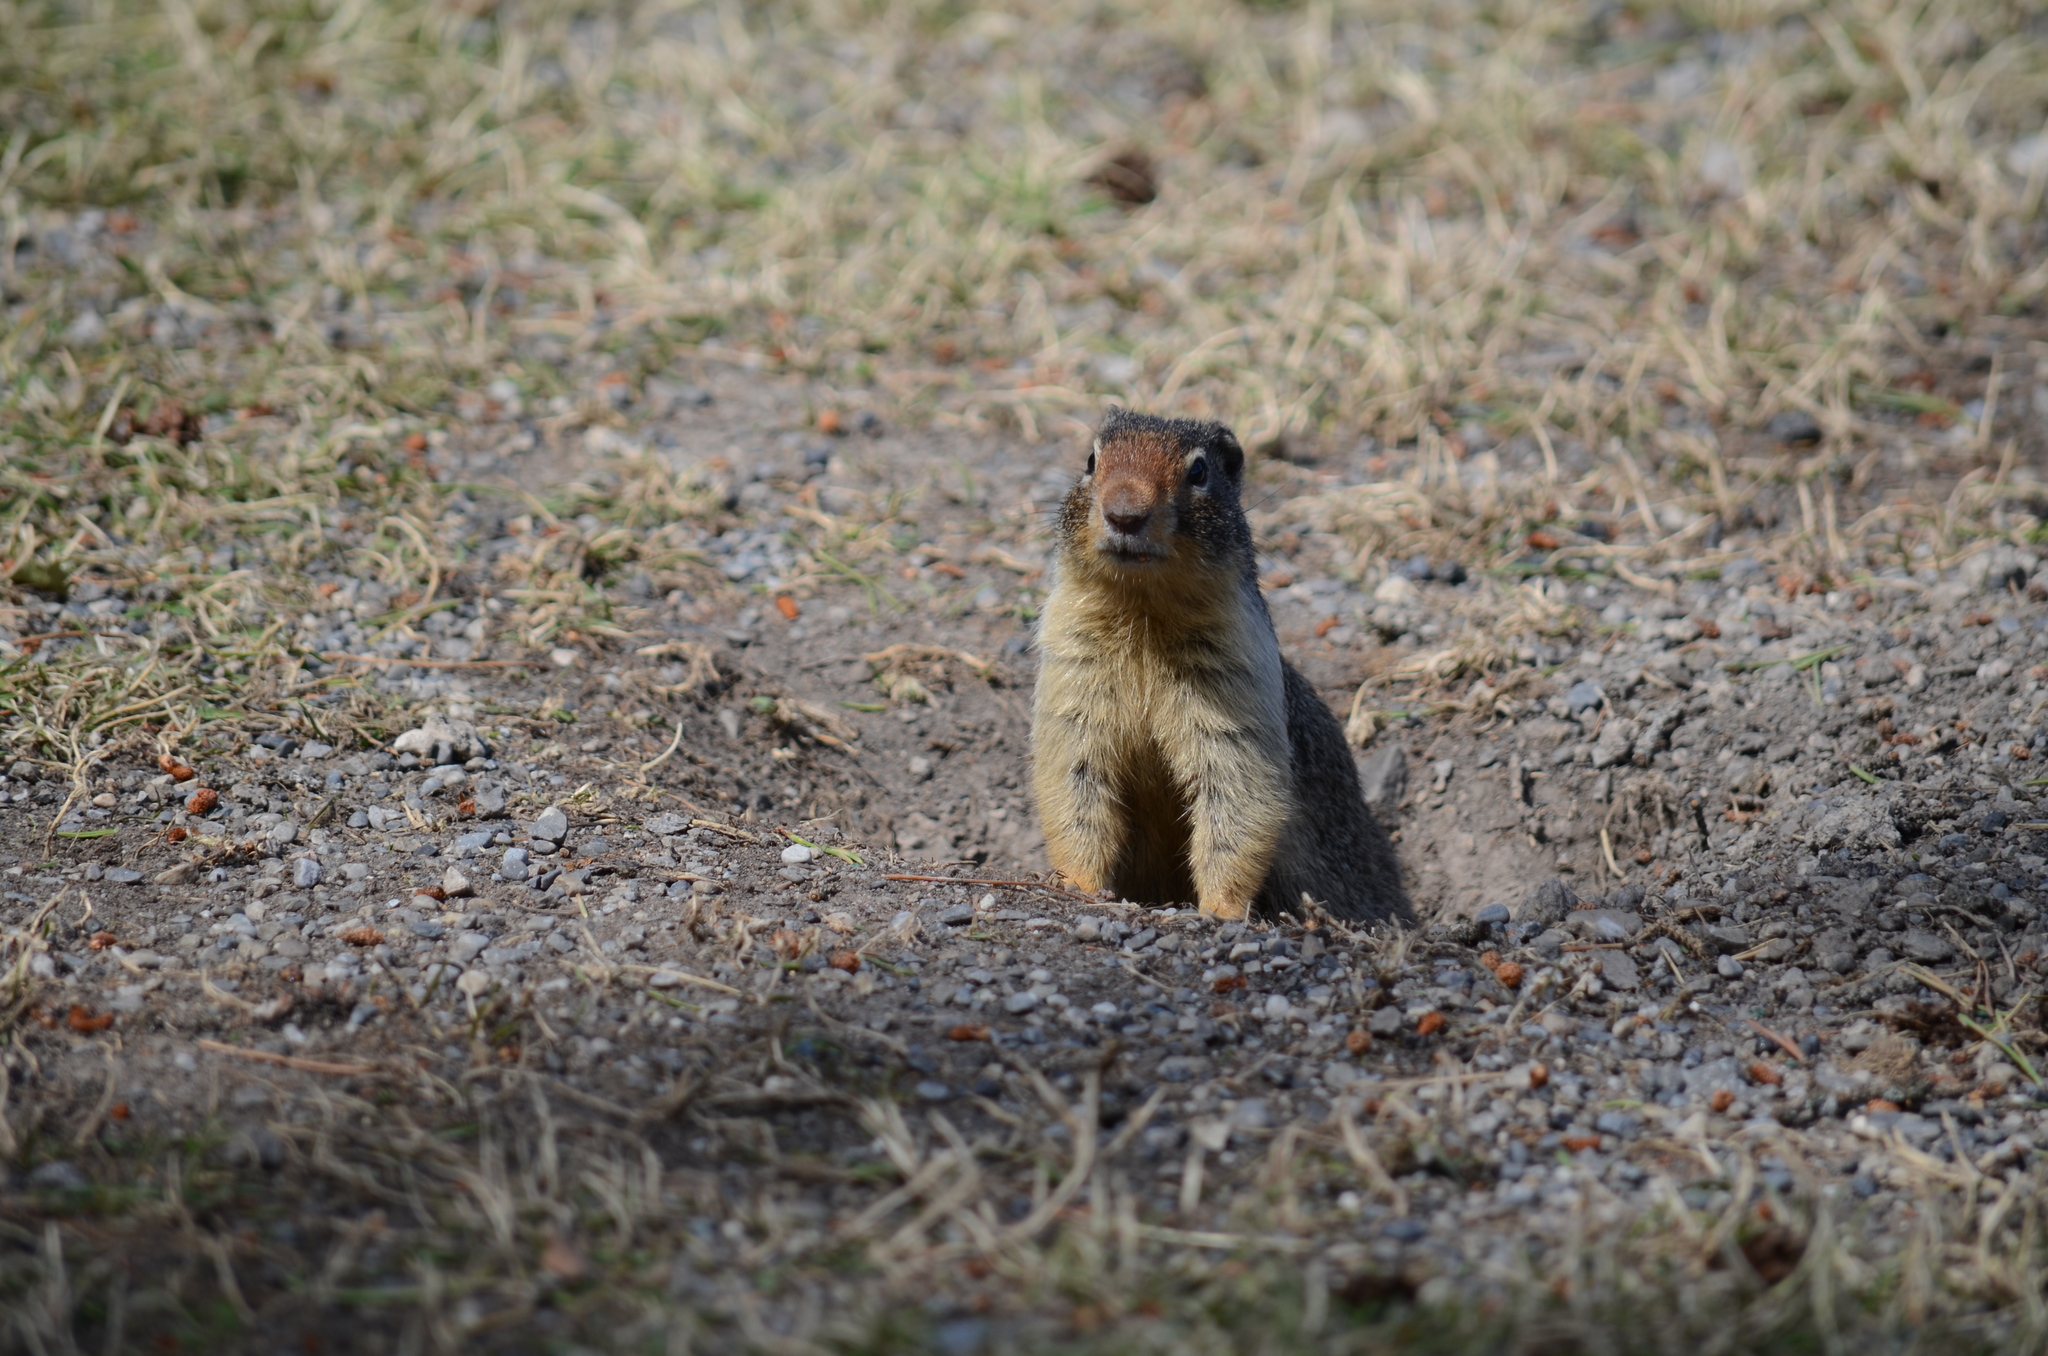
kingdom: Animalia
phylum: Chordata
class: Mammalia
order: Rodentia
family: Sciuridae
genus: Urocitellus
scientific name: Urocitellus columbianus
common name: Columbian ground squirrel
